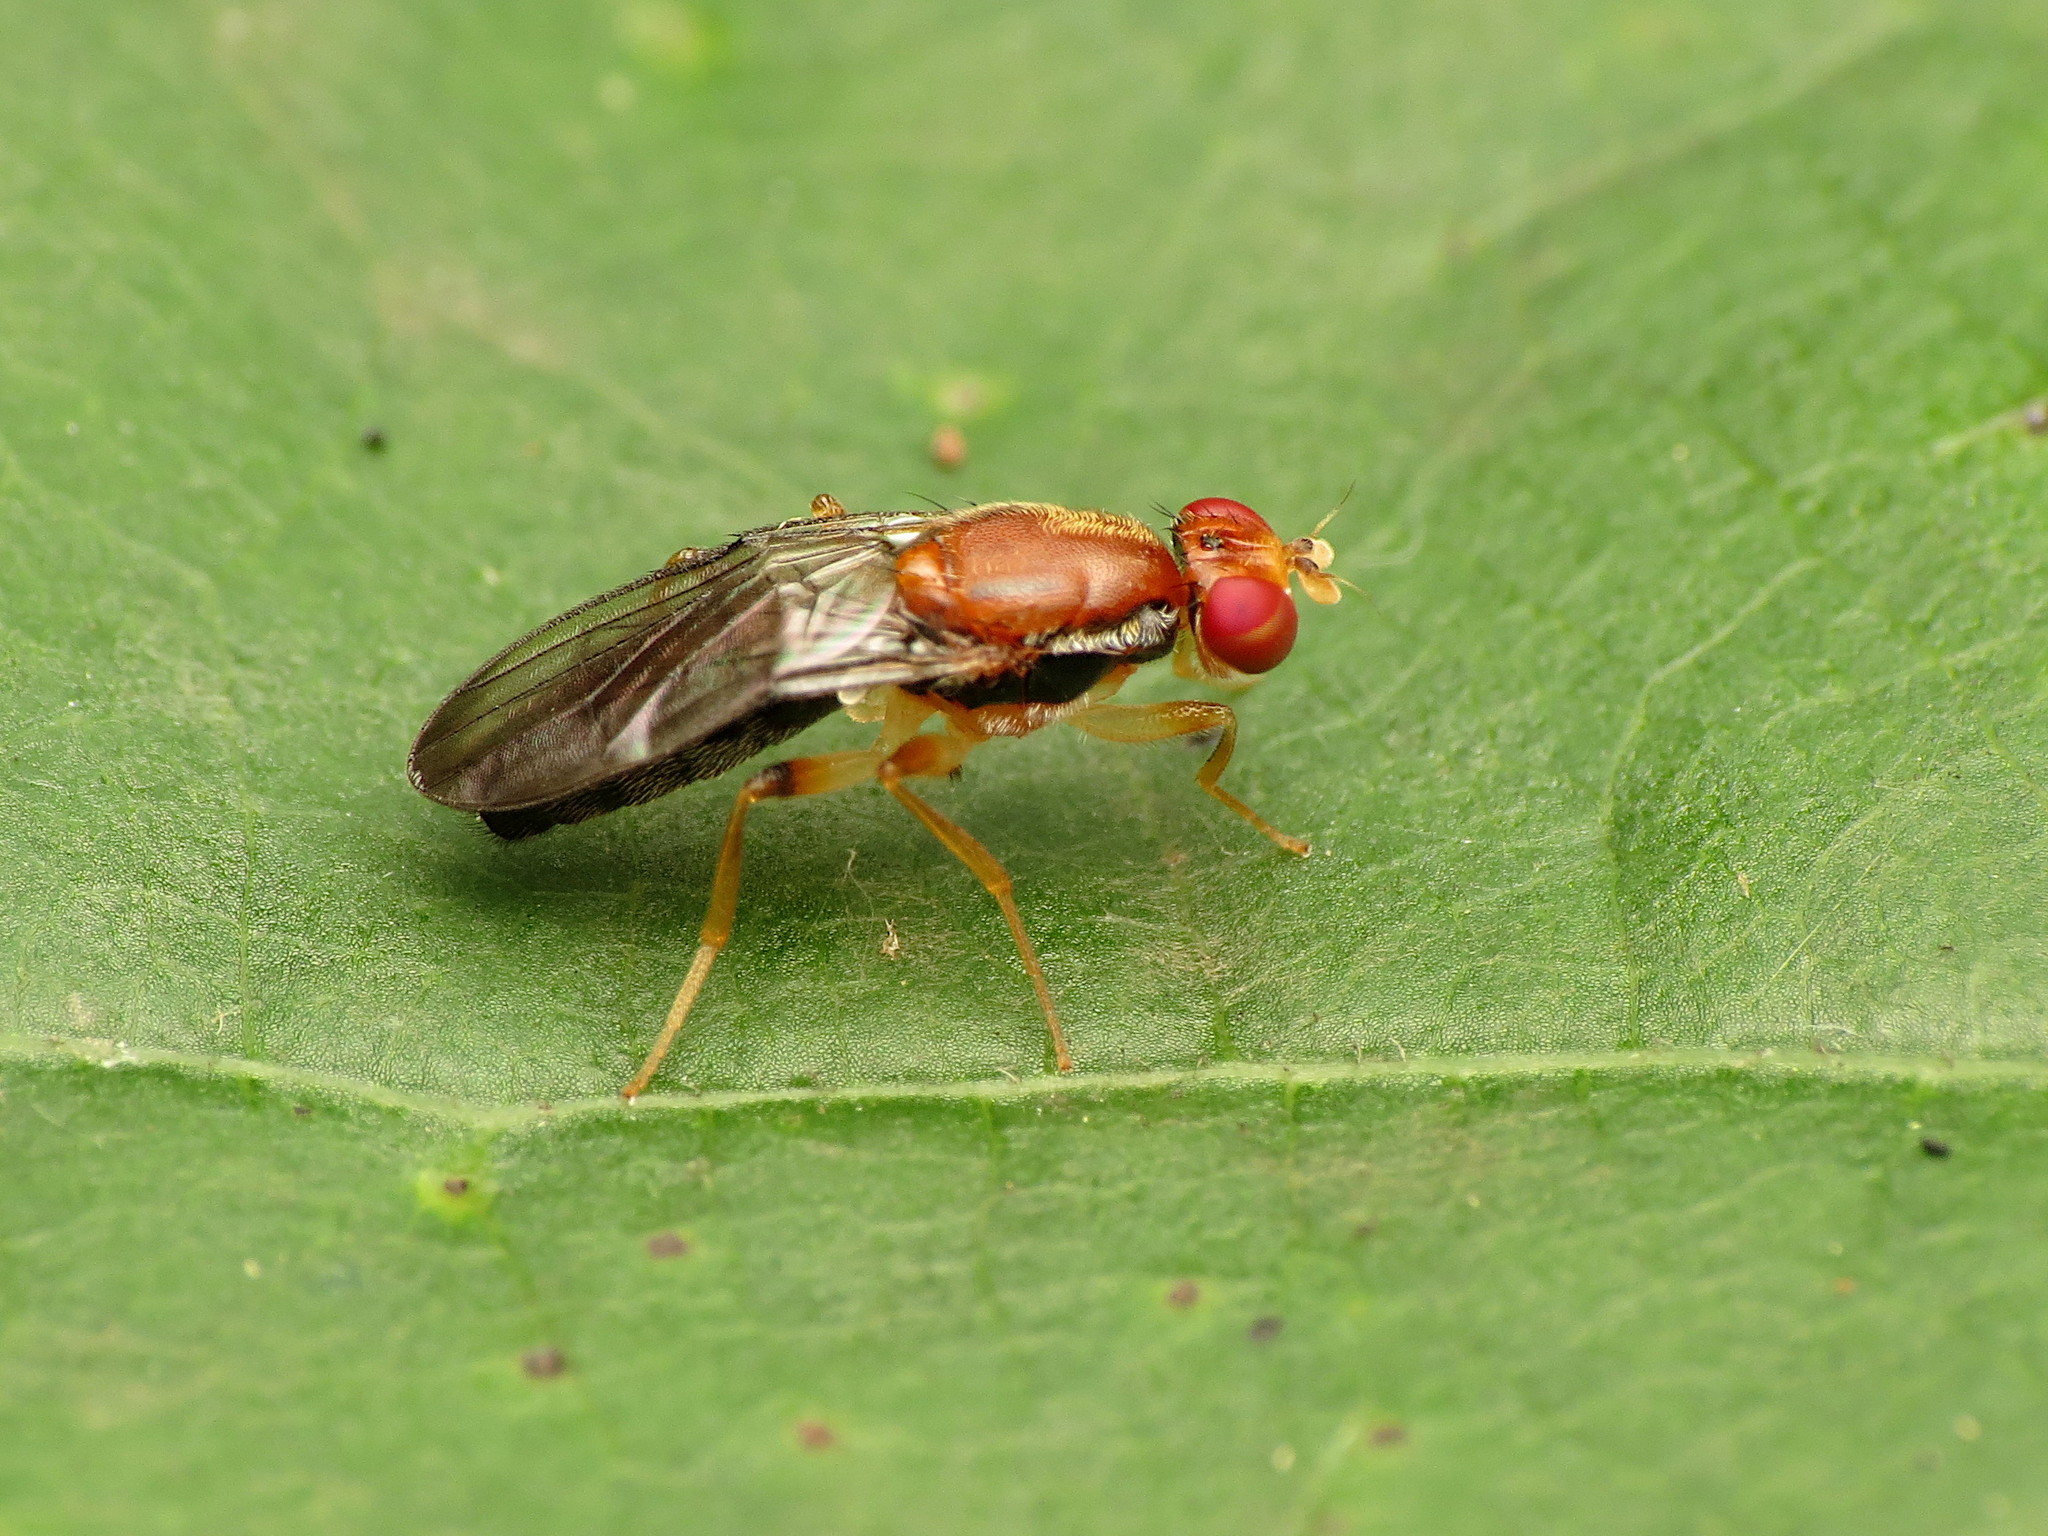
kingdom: Animalia
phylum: Arthropoda
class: Insecta
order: Diptera
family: Psilidae
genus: Chyliza
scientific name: Chyliza apicalis
